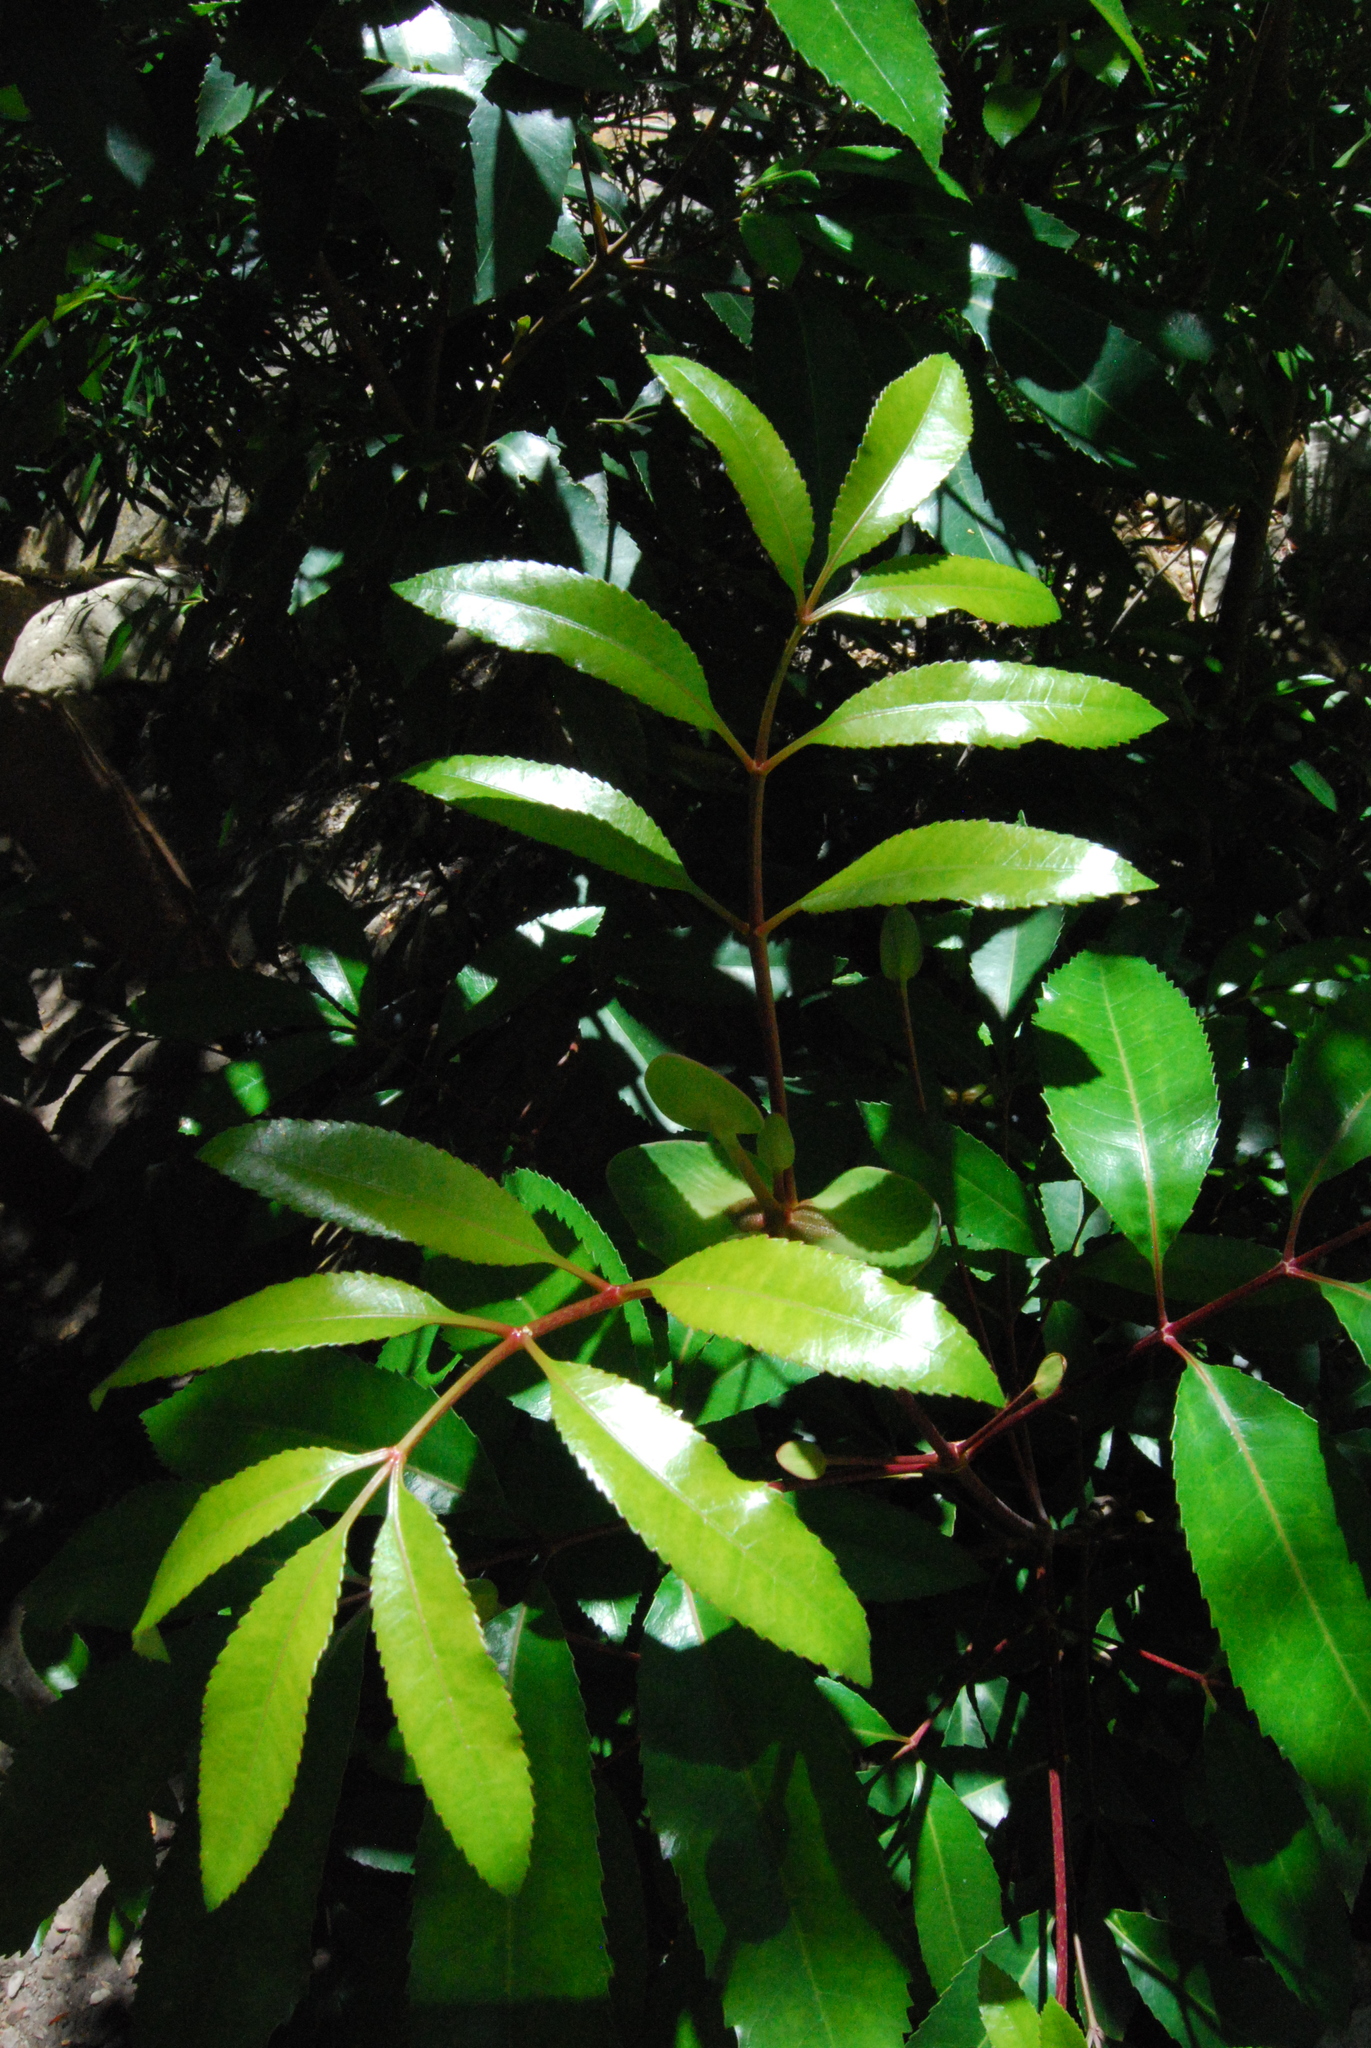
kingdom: Plantae
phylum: Tracheophyta
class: Magnoliopsida
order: Oxalidales
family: Cunoniaceae
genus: Cunonia
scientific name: Cunonia capensis
